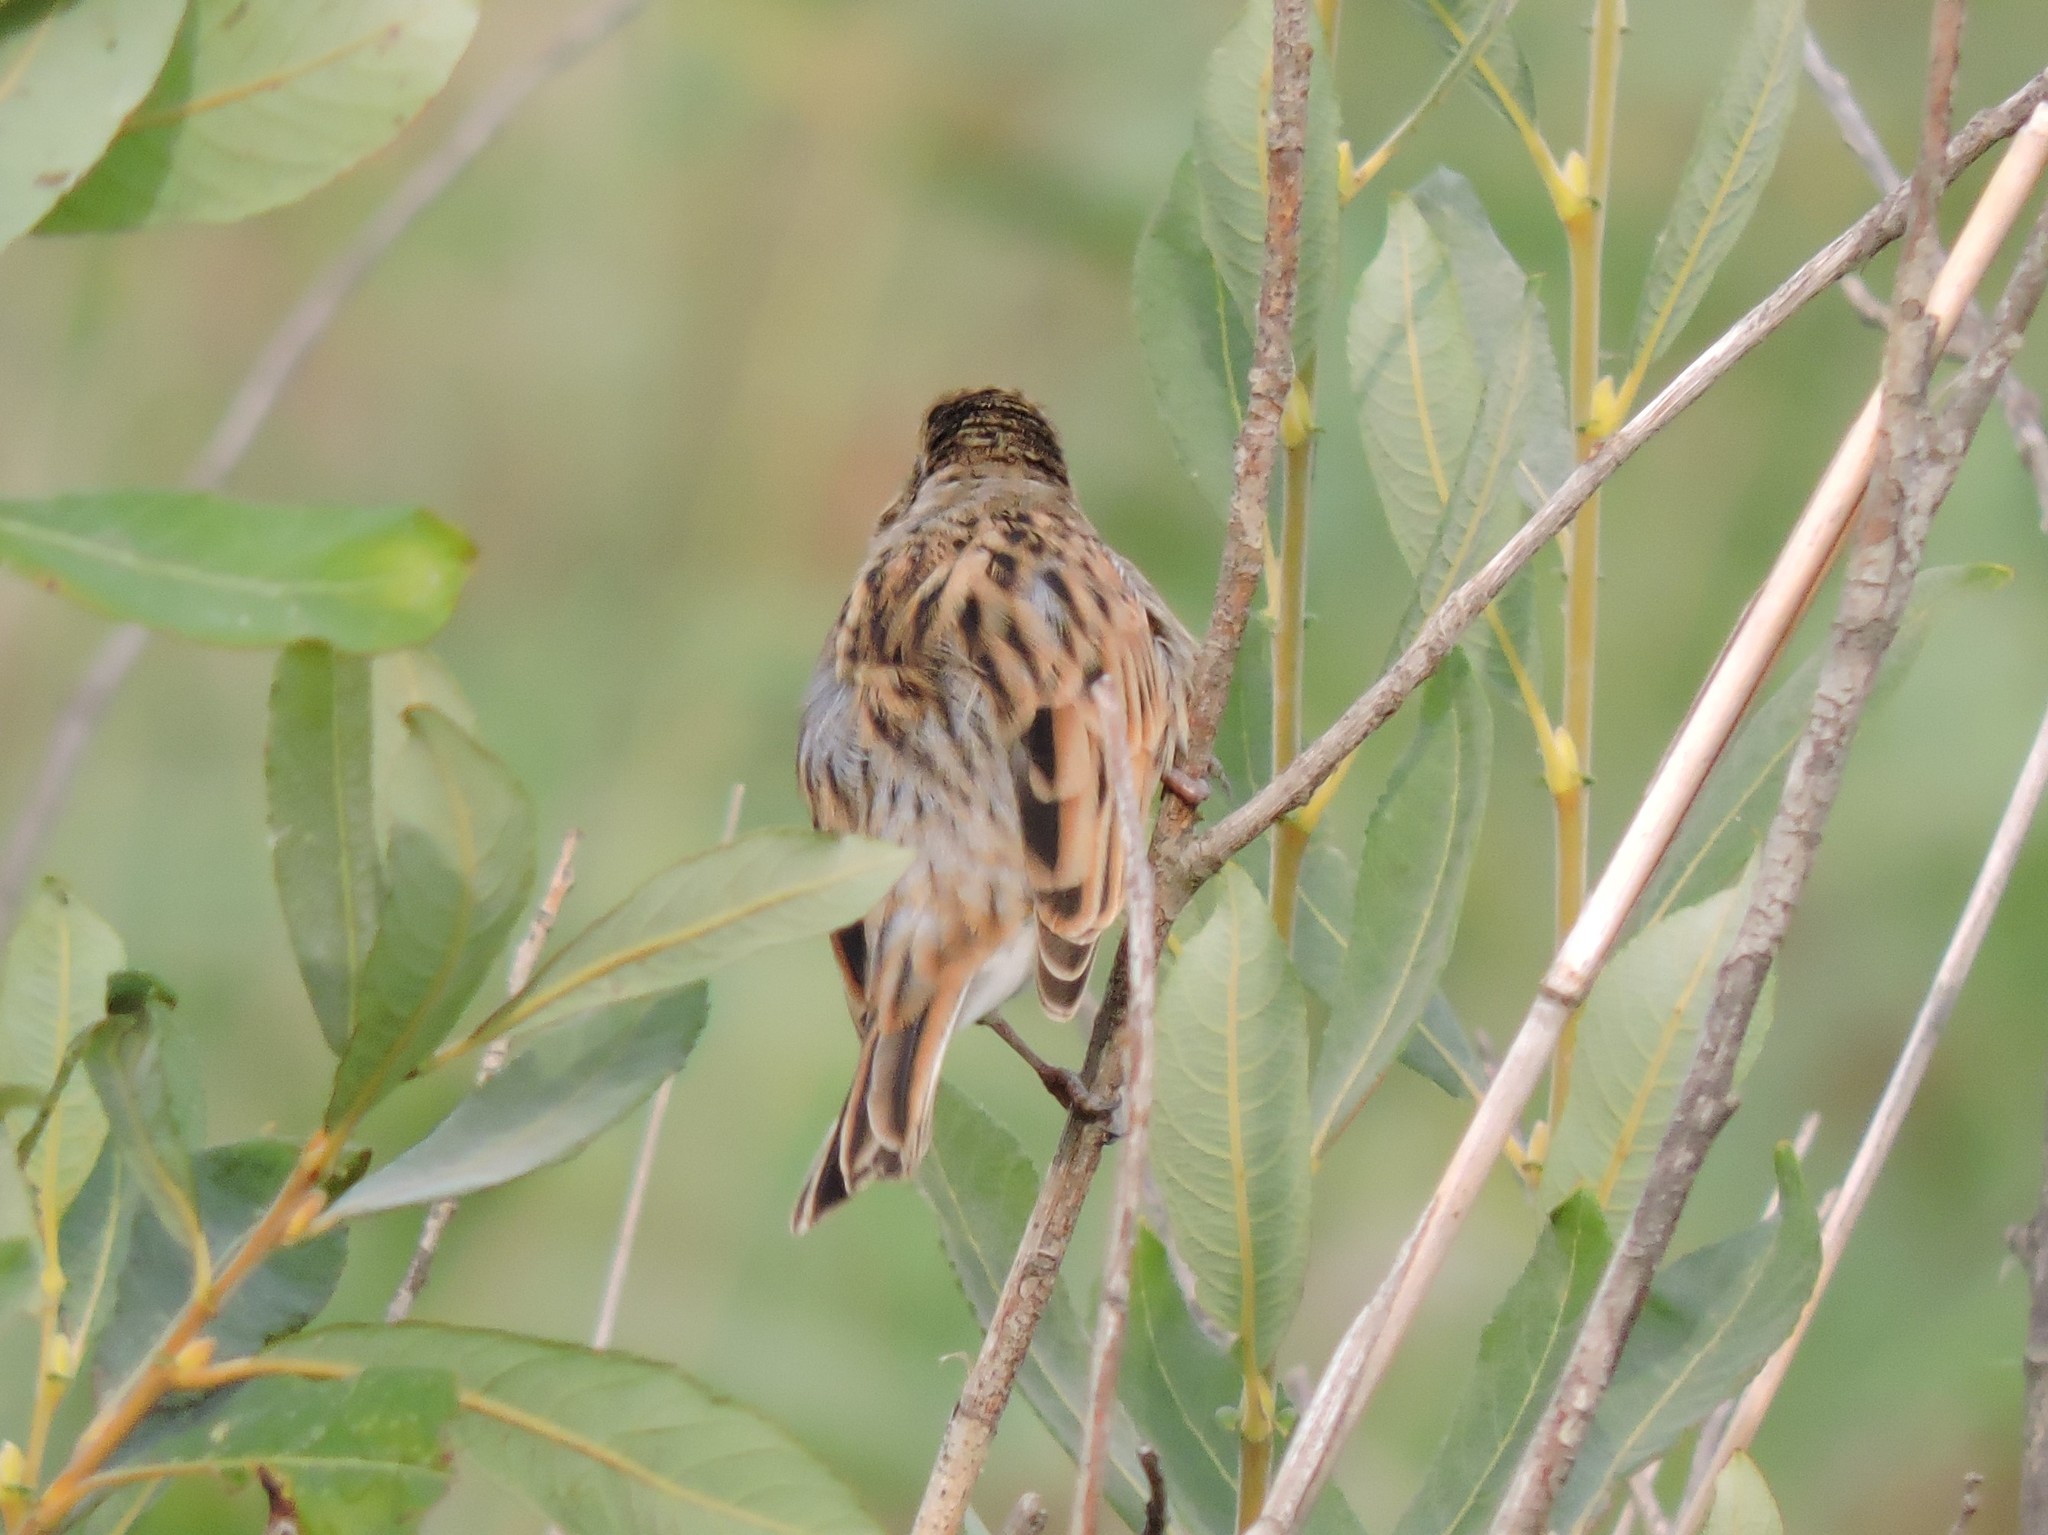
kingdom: Animalia
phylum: Chordata
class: Aves
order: Passeriformes
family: Emberizidae
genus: Emberiza
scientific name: Emberiza schoeniclus
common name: Reed bunting
